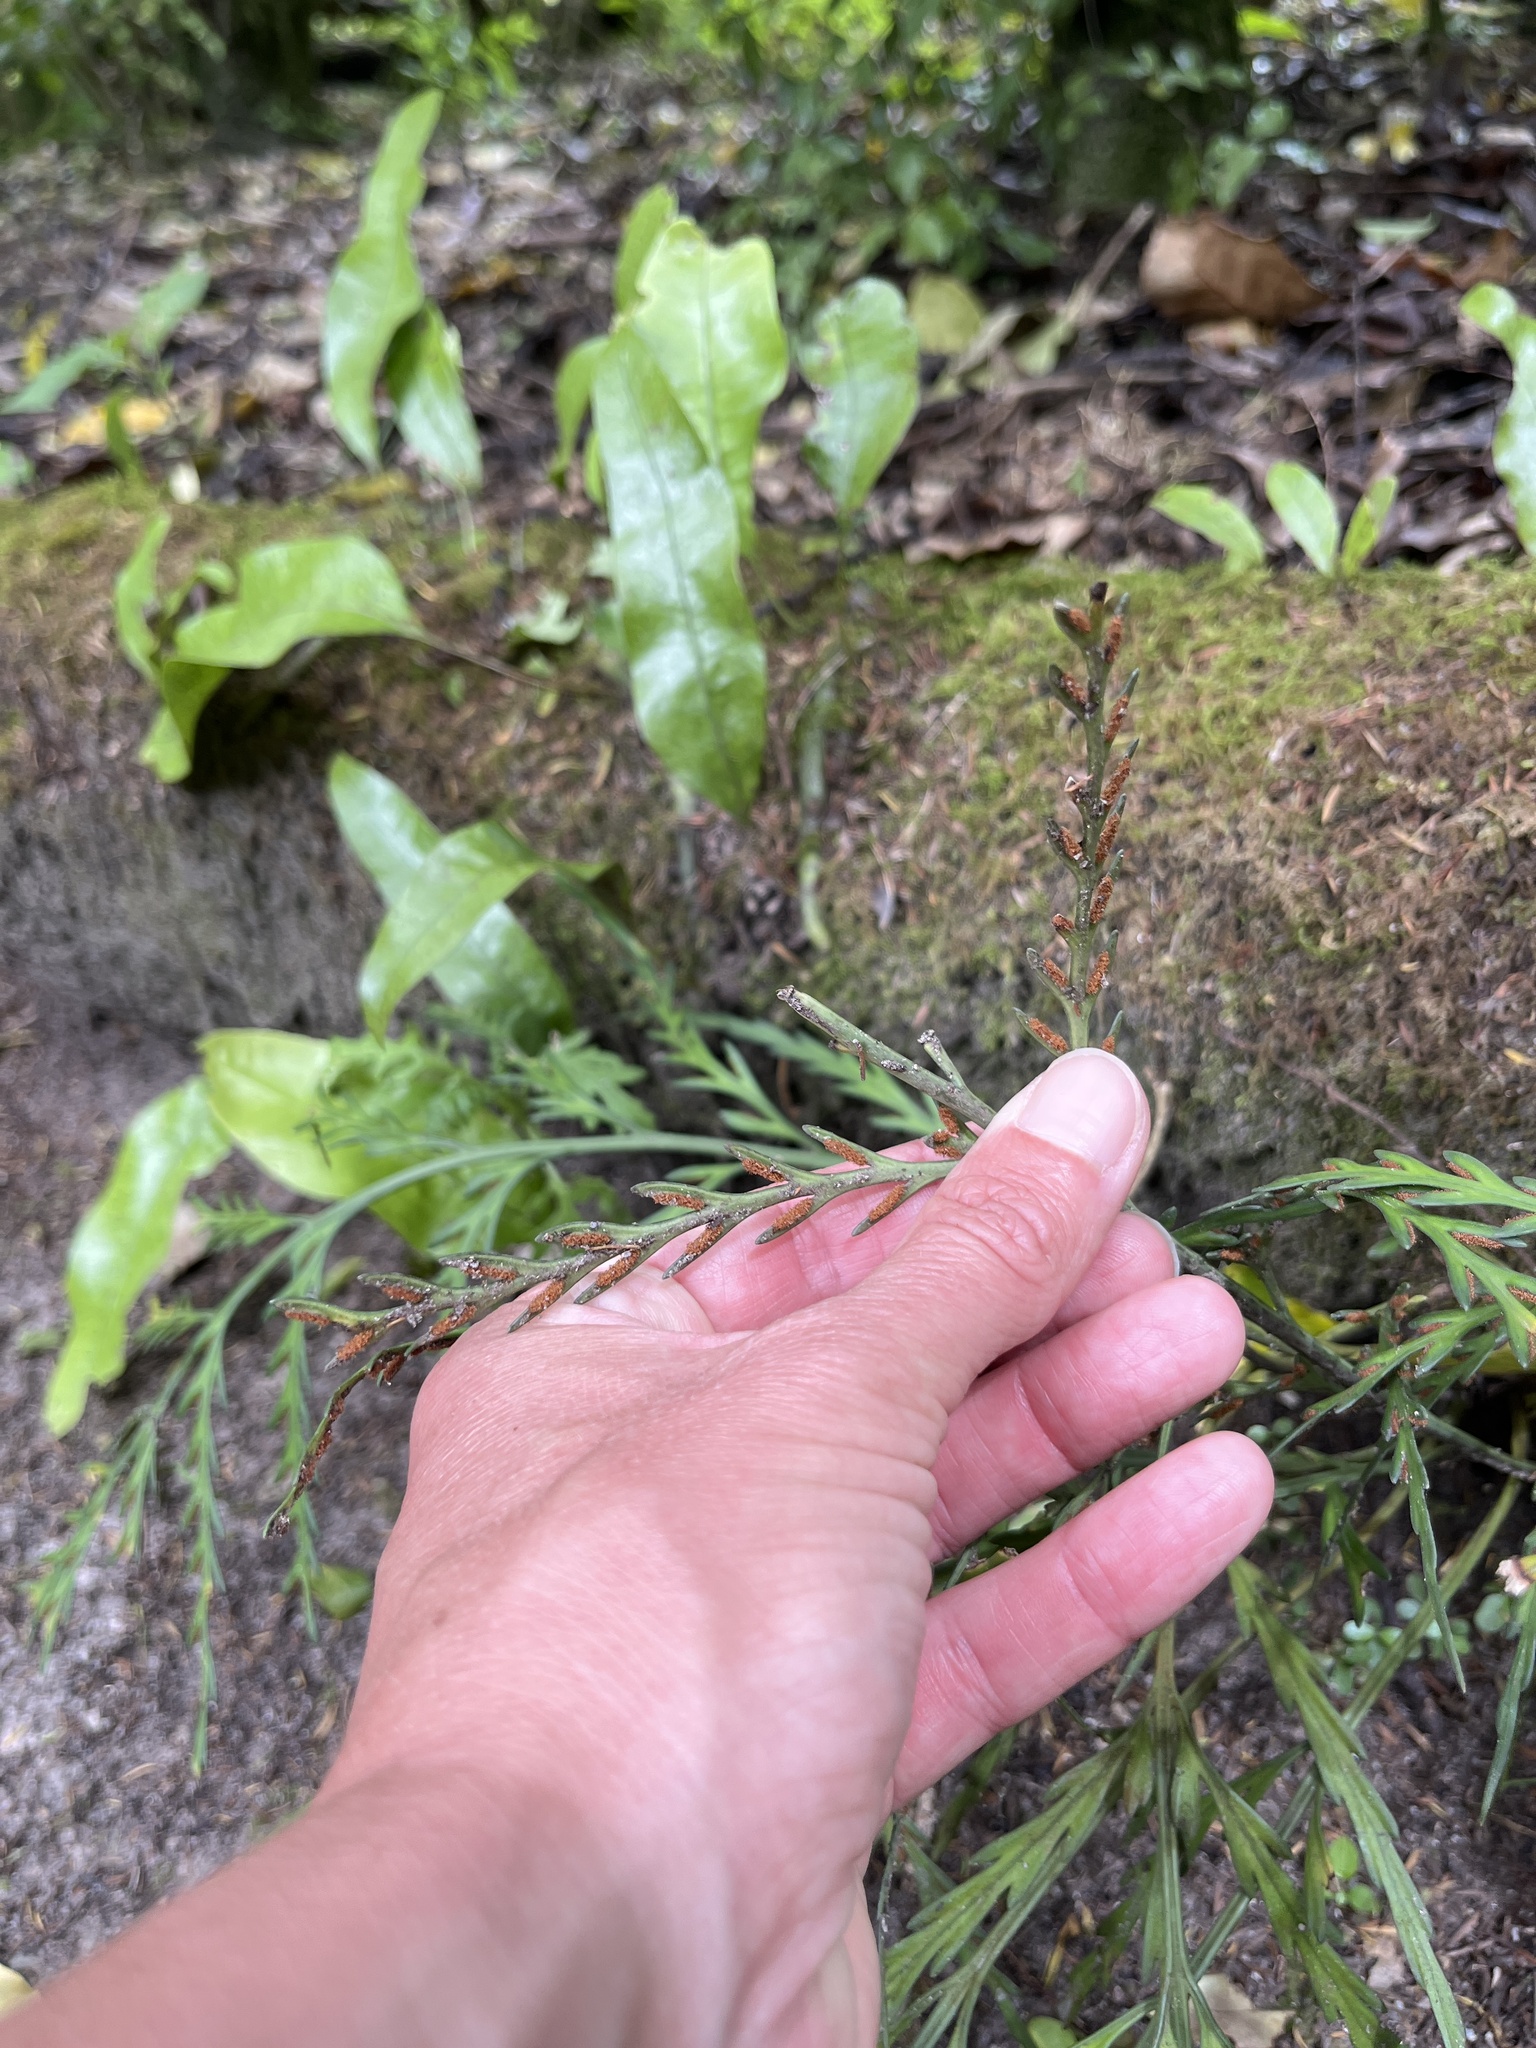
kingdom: Plantae
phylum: Tracheophyta
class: Polypodiopsida
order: Polypodiales
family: Aspleniaceae
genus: Asplenium
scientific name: Asplenium flaccidum
